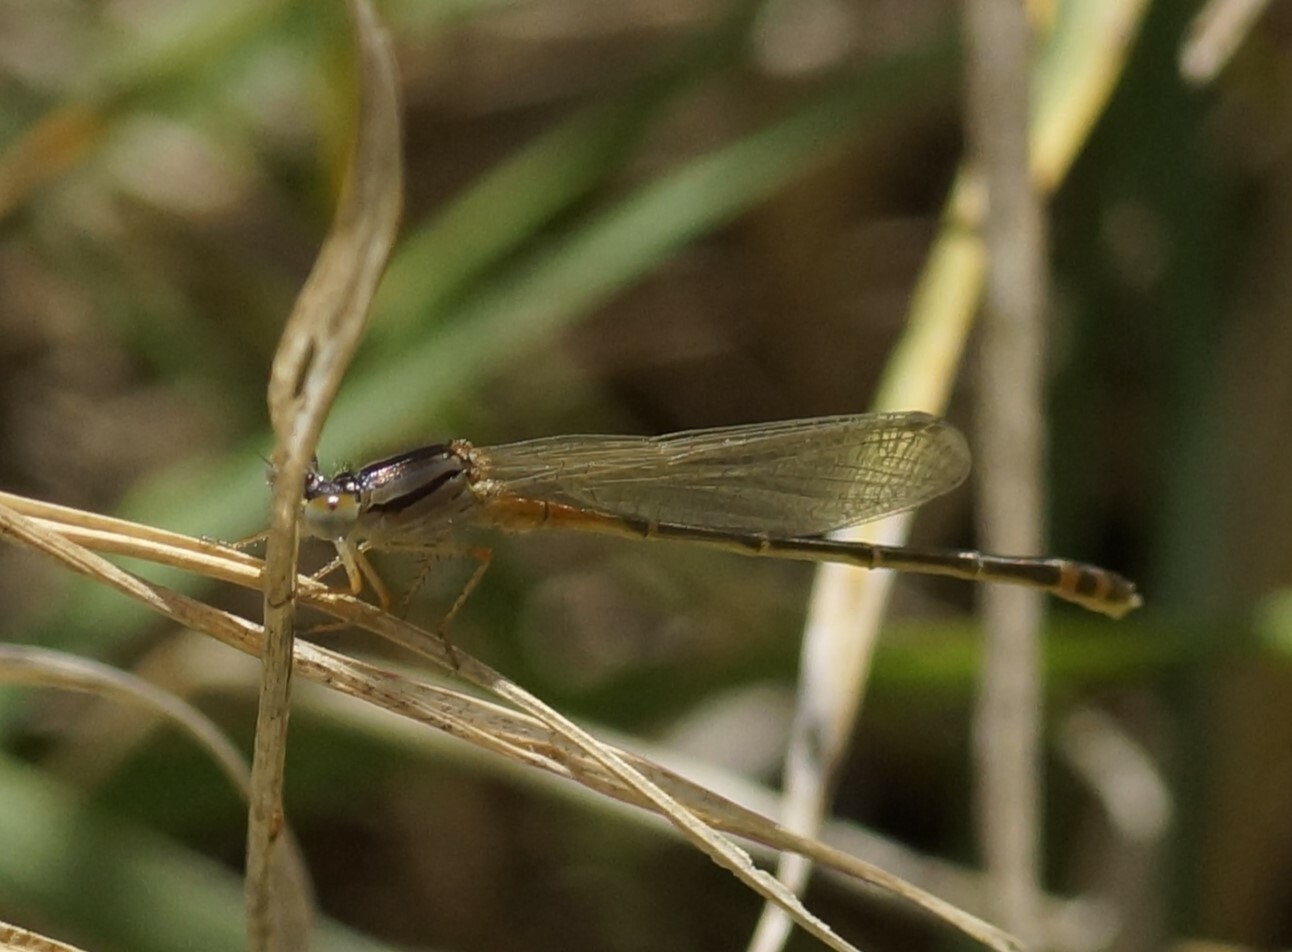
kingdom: Animalia
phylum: Arthropoda
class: Insecta
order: Odonata
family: Coenagrionidae
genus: Xanthagrion
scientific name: Xanthagrion erythroneurum
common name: Red and blue damsel
